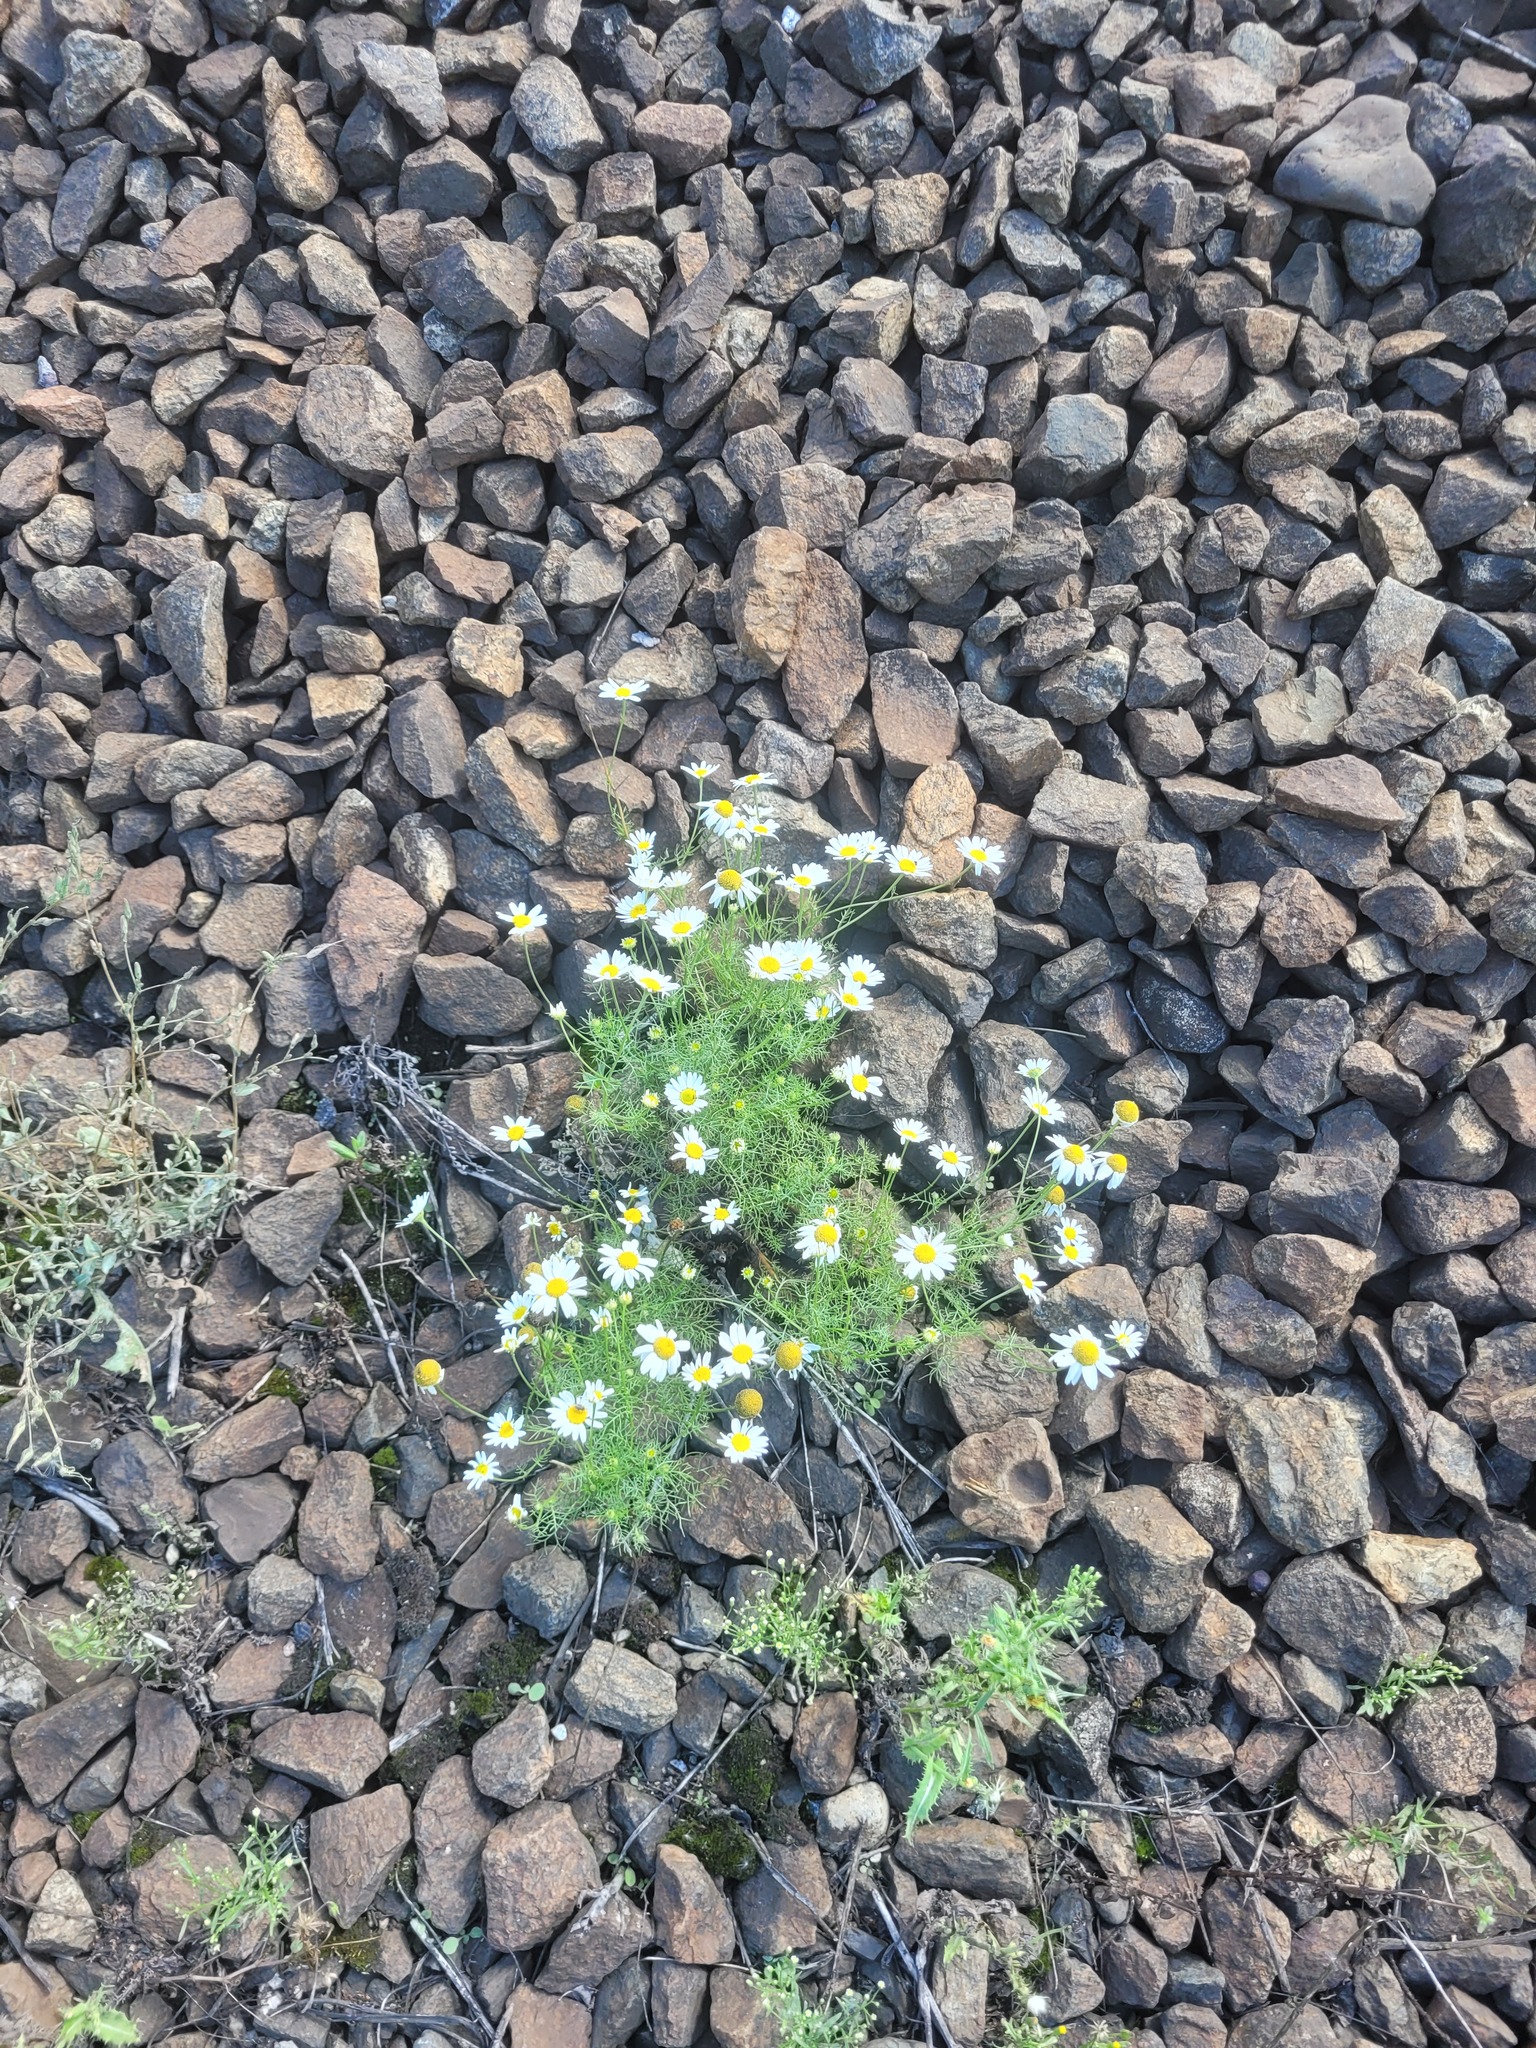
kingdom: Plantae
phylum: Tracheophyta
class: Magnoliopsida
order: Asterales
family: Asteraceae
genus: Tripleurospermum
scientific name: Tripleurospermum inodorum
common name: Scentless mayweed
